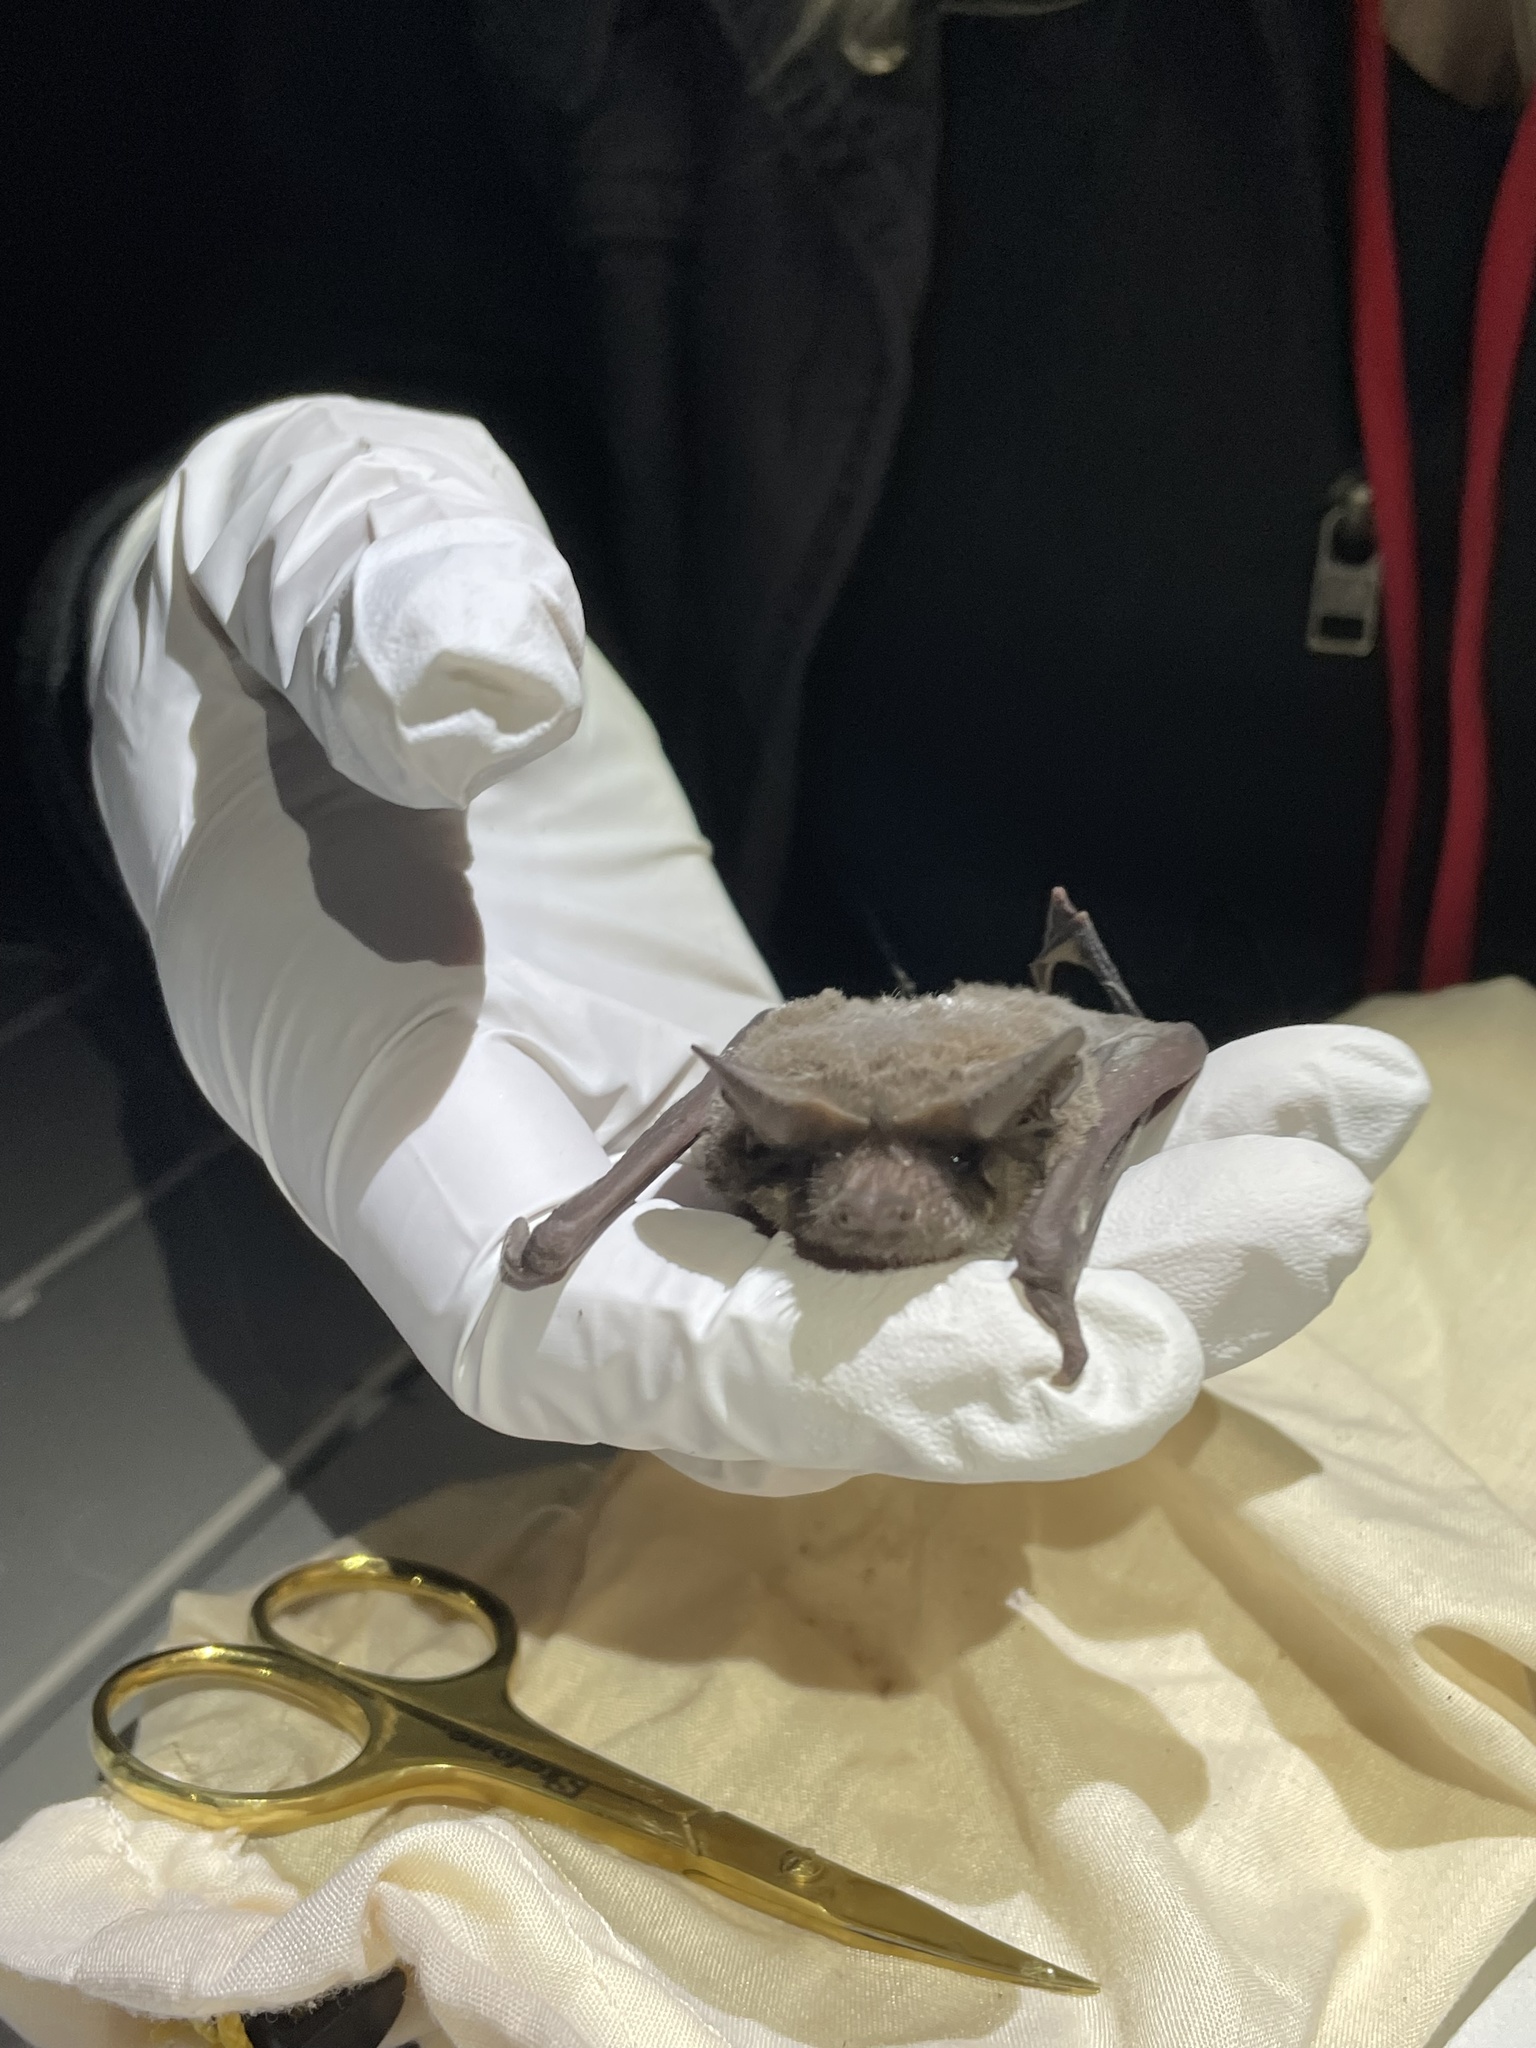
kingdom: Animalia
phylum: Chordata
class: Mammalia
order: Chiroptera
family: Molossidae
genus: Tadarida
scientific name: Tadarida brasiliensis
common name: Mexican free-tailed bat
